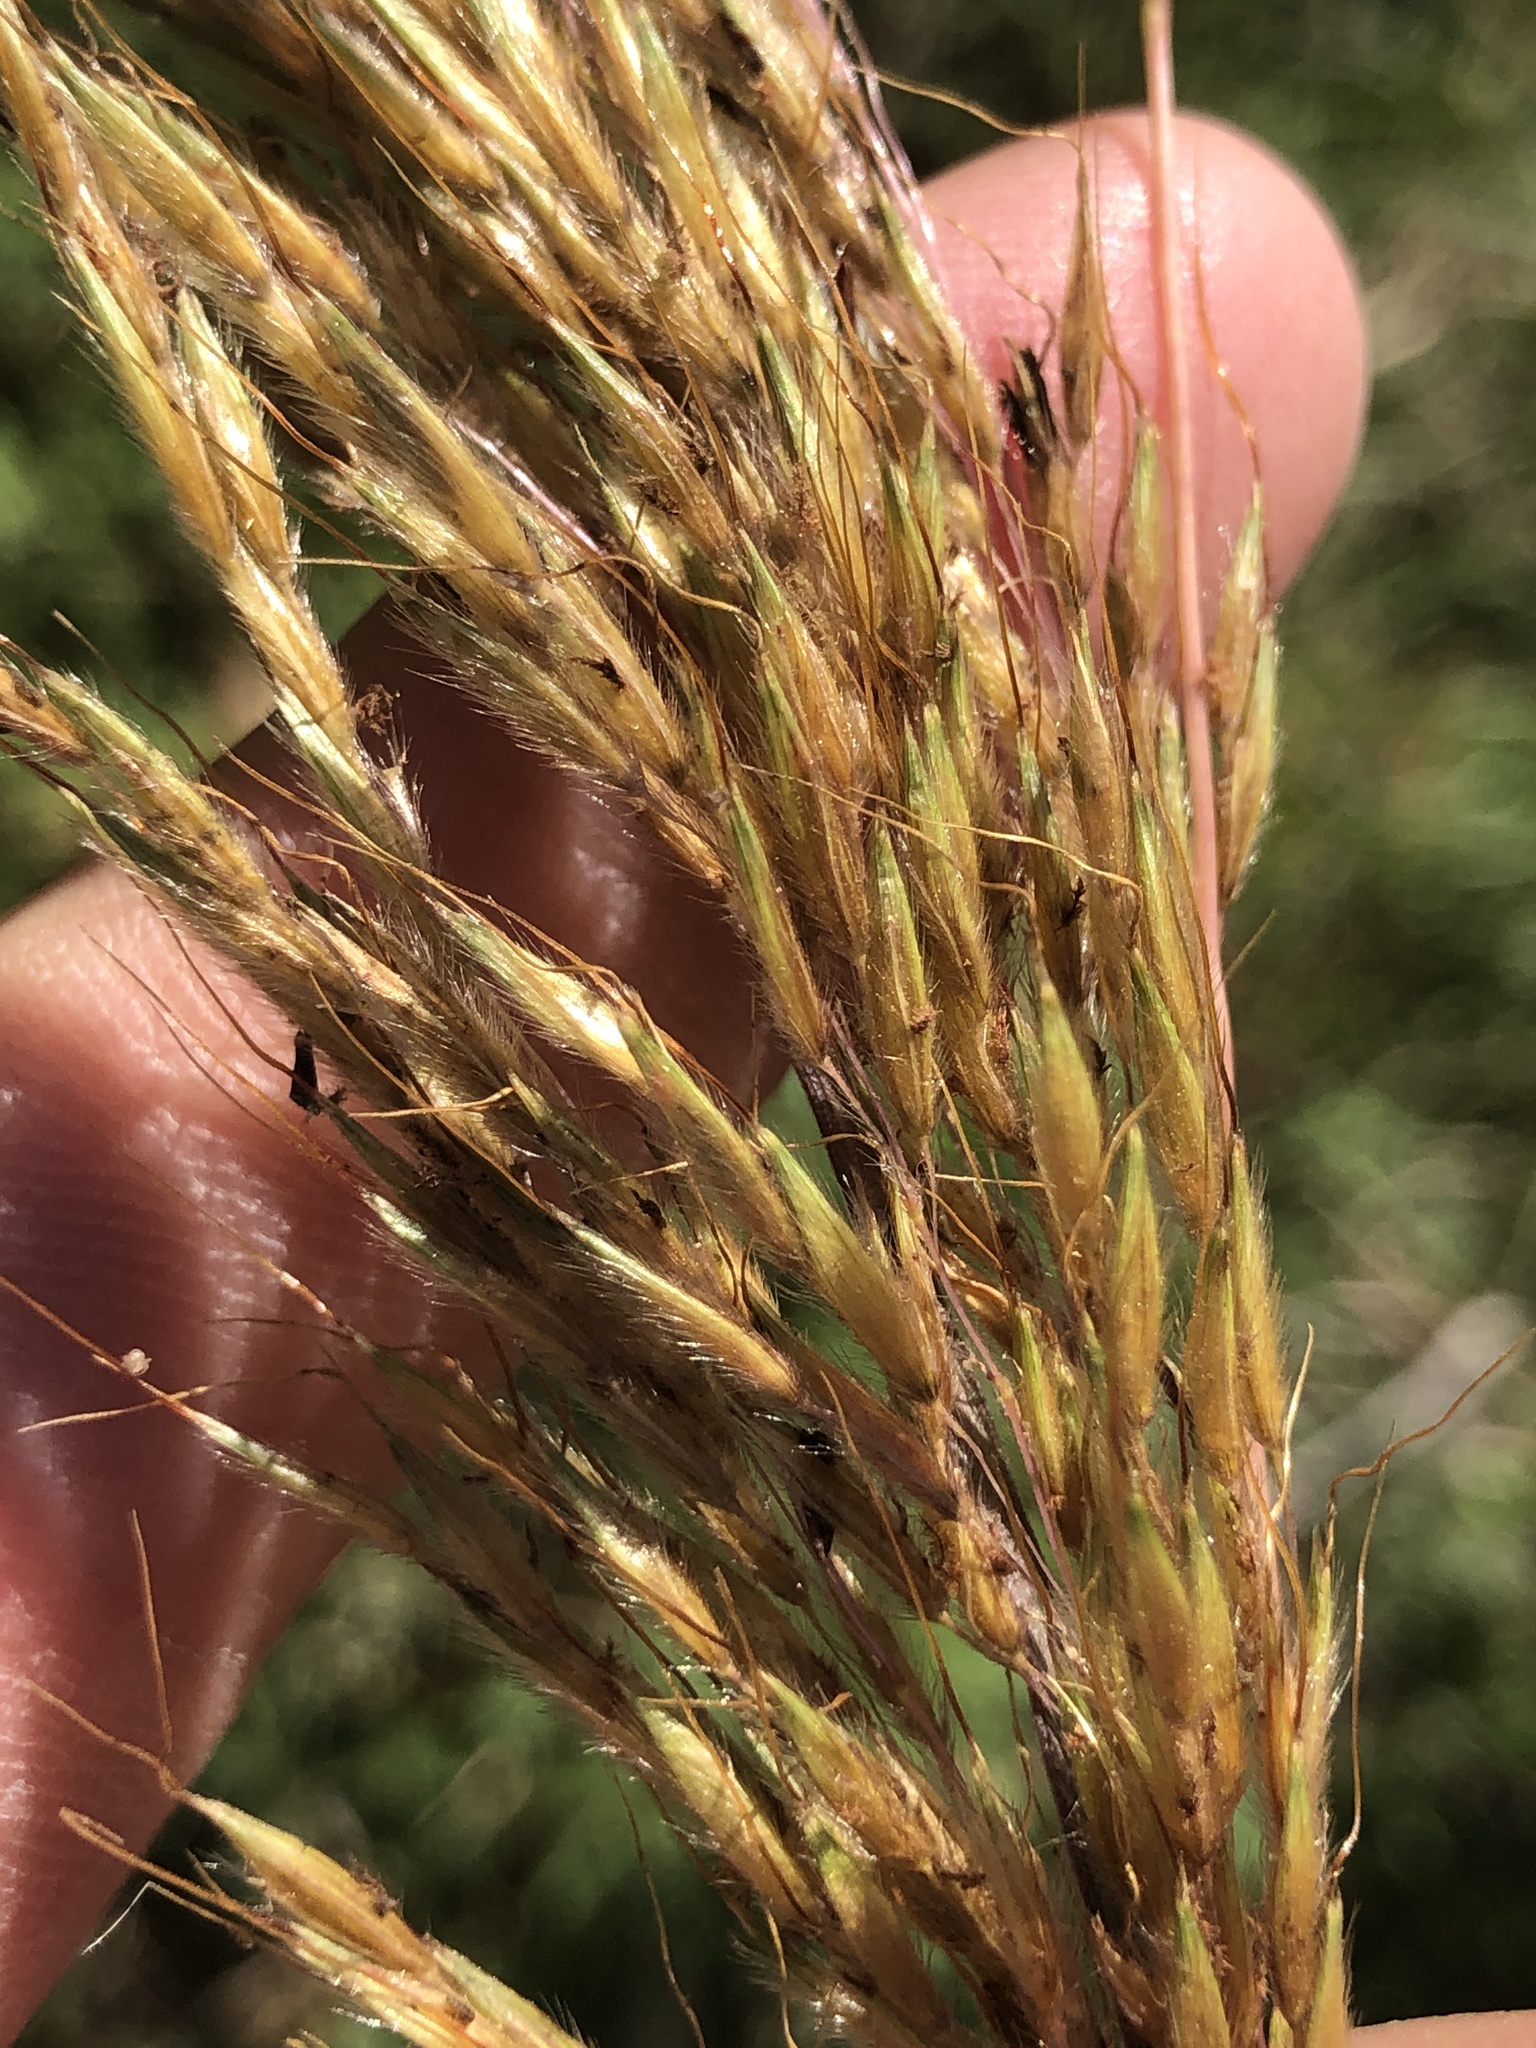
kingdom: Plantae
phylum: Tracheophyta
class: Liliopsida
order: Poales
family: Poaceae
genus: Sorghastrum
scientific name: Sorghastrum nutans
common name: Indian grass
